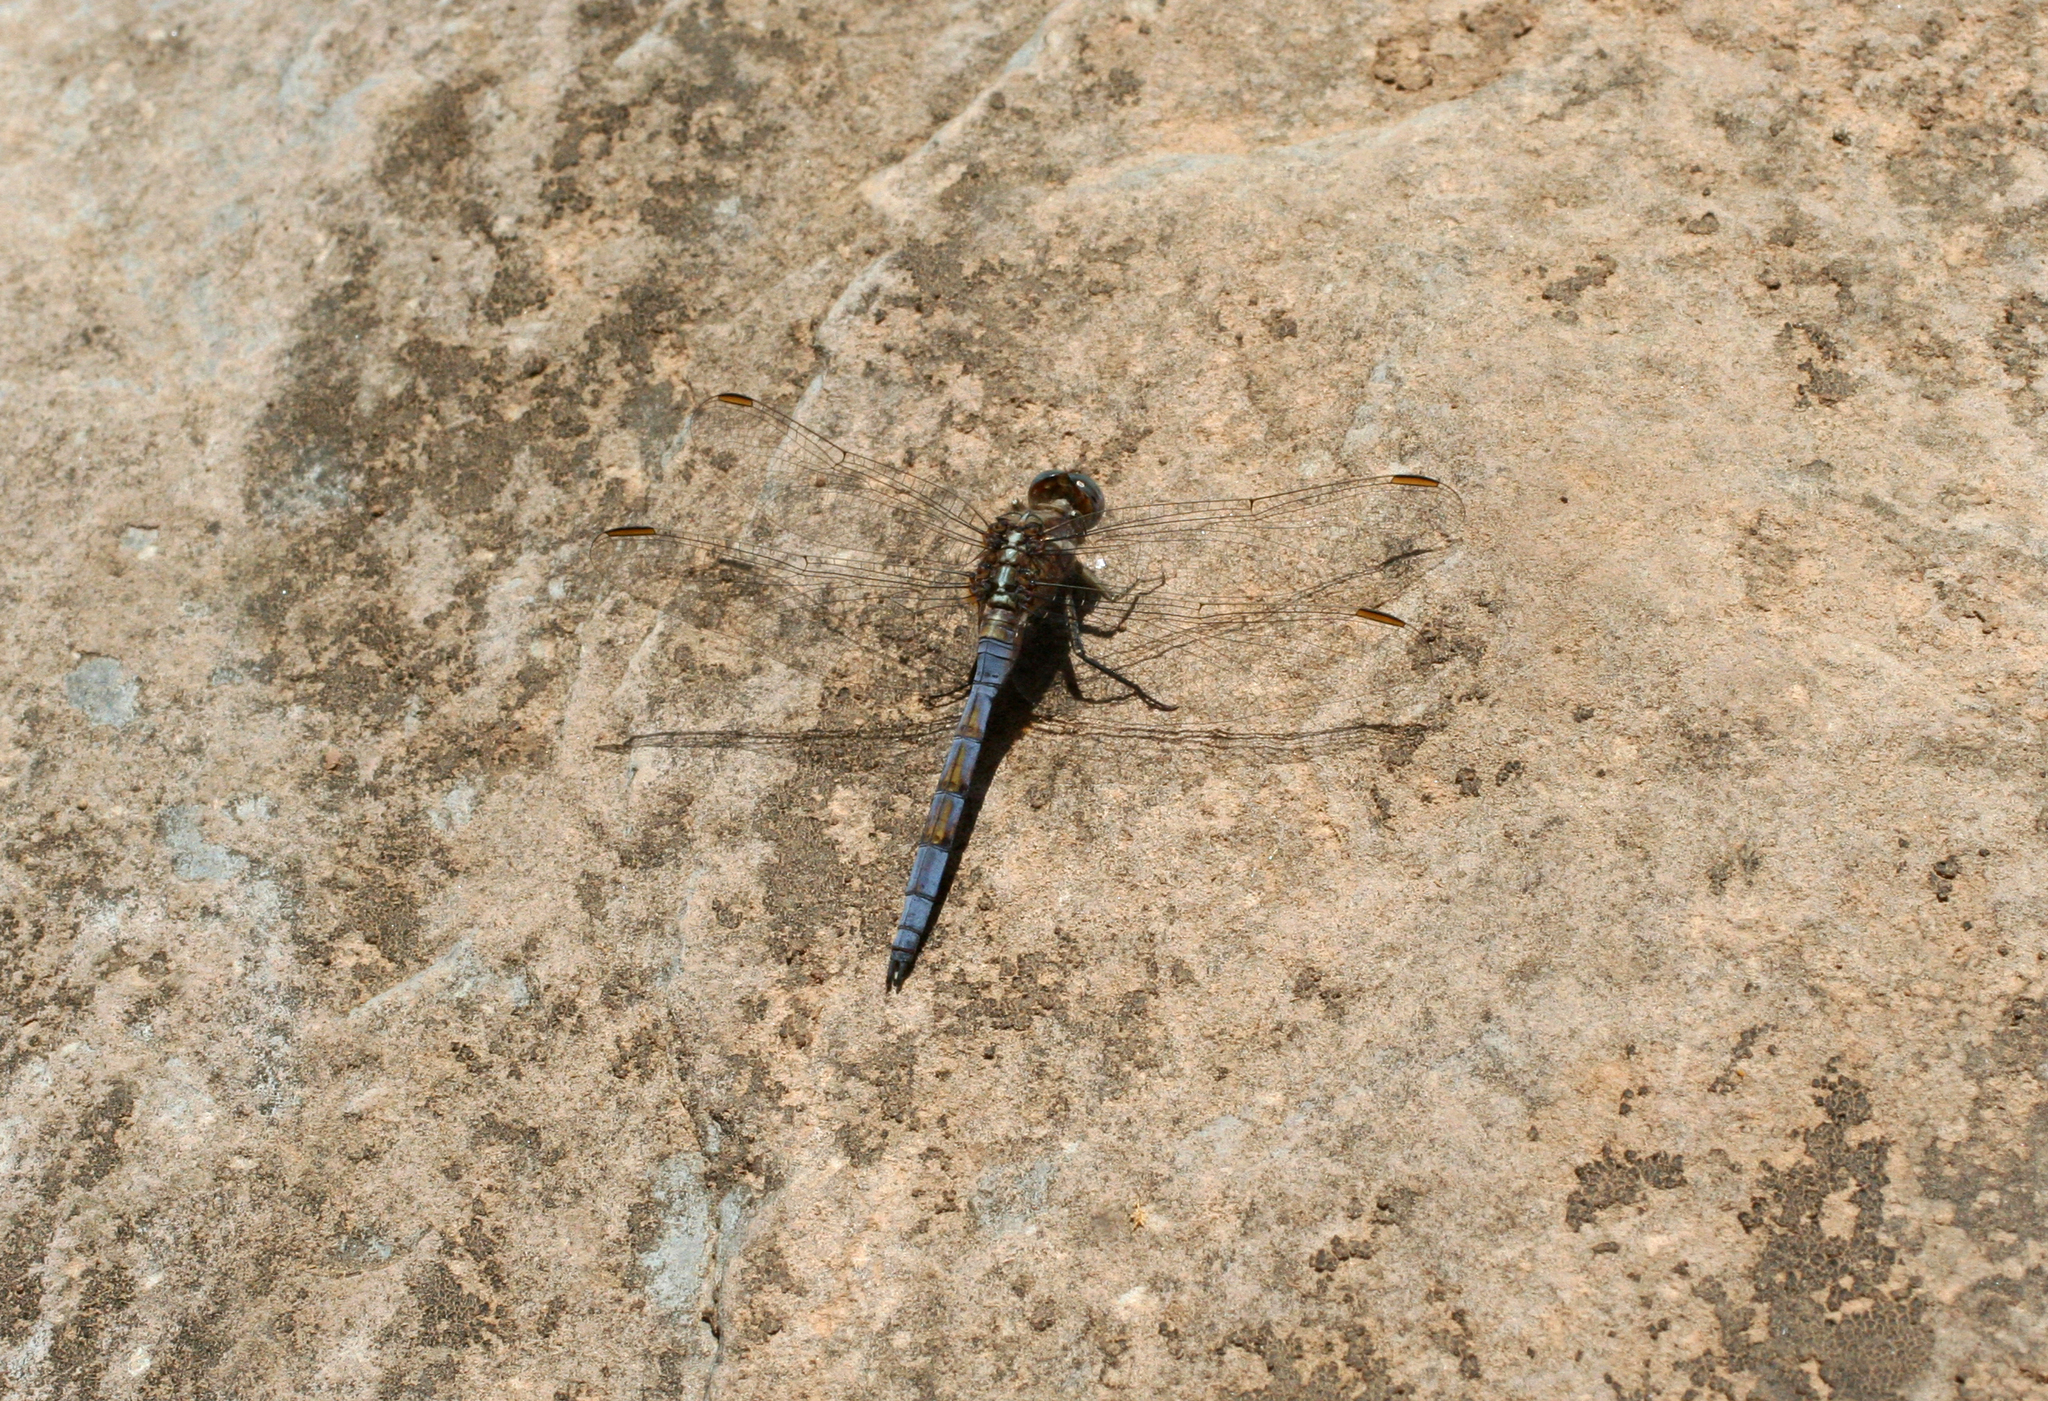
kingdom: Animalia
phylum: Arthropoda
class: Insecta
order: Odonata
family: Libellulidae
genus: Orthetrum
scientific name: Orthetrum chrysostigma
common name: Epaulet skimmer
